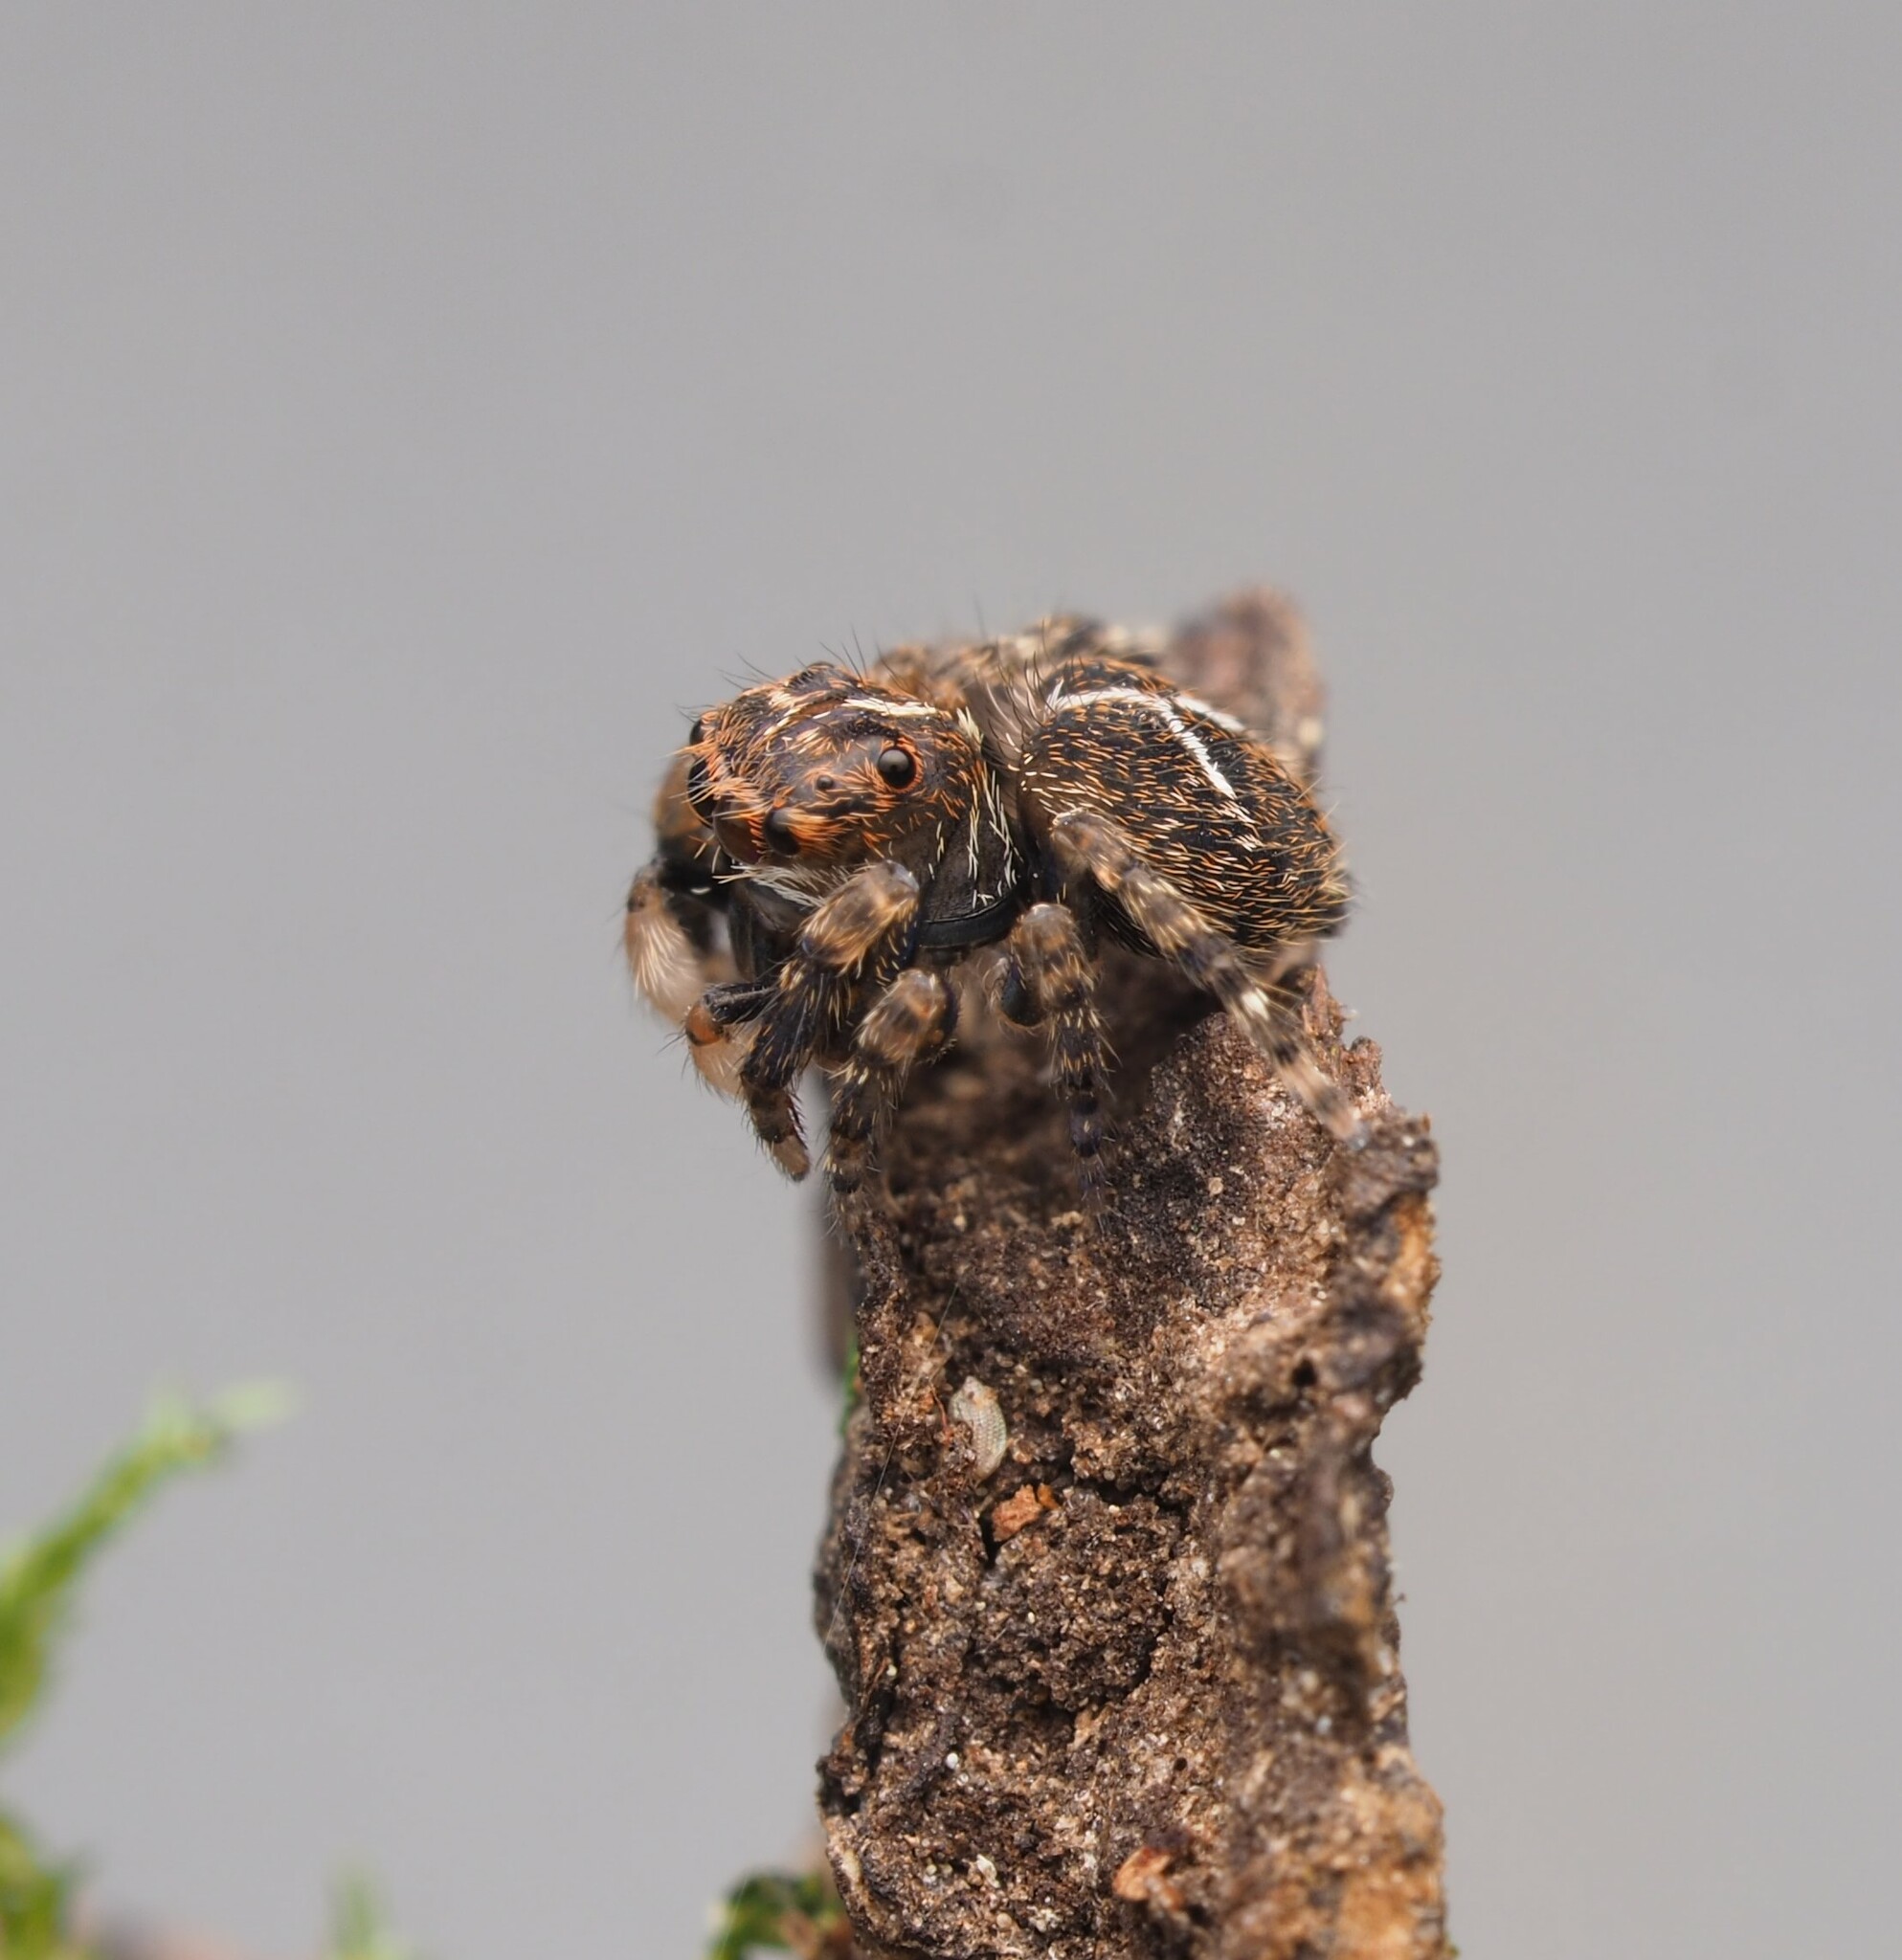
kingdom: Animalia
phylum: Arthropoda
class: Arachnida
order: Araneae
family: Salticidae
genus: Papuaneon
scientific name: Papuaneon
